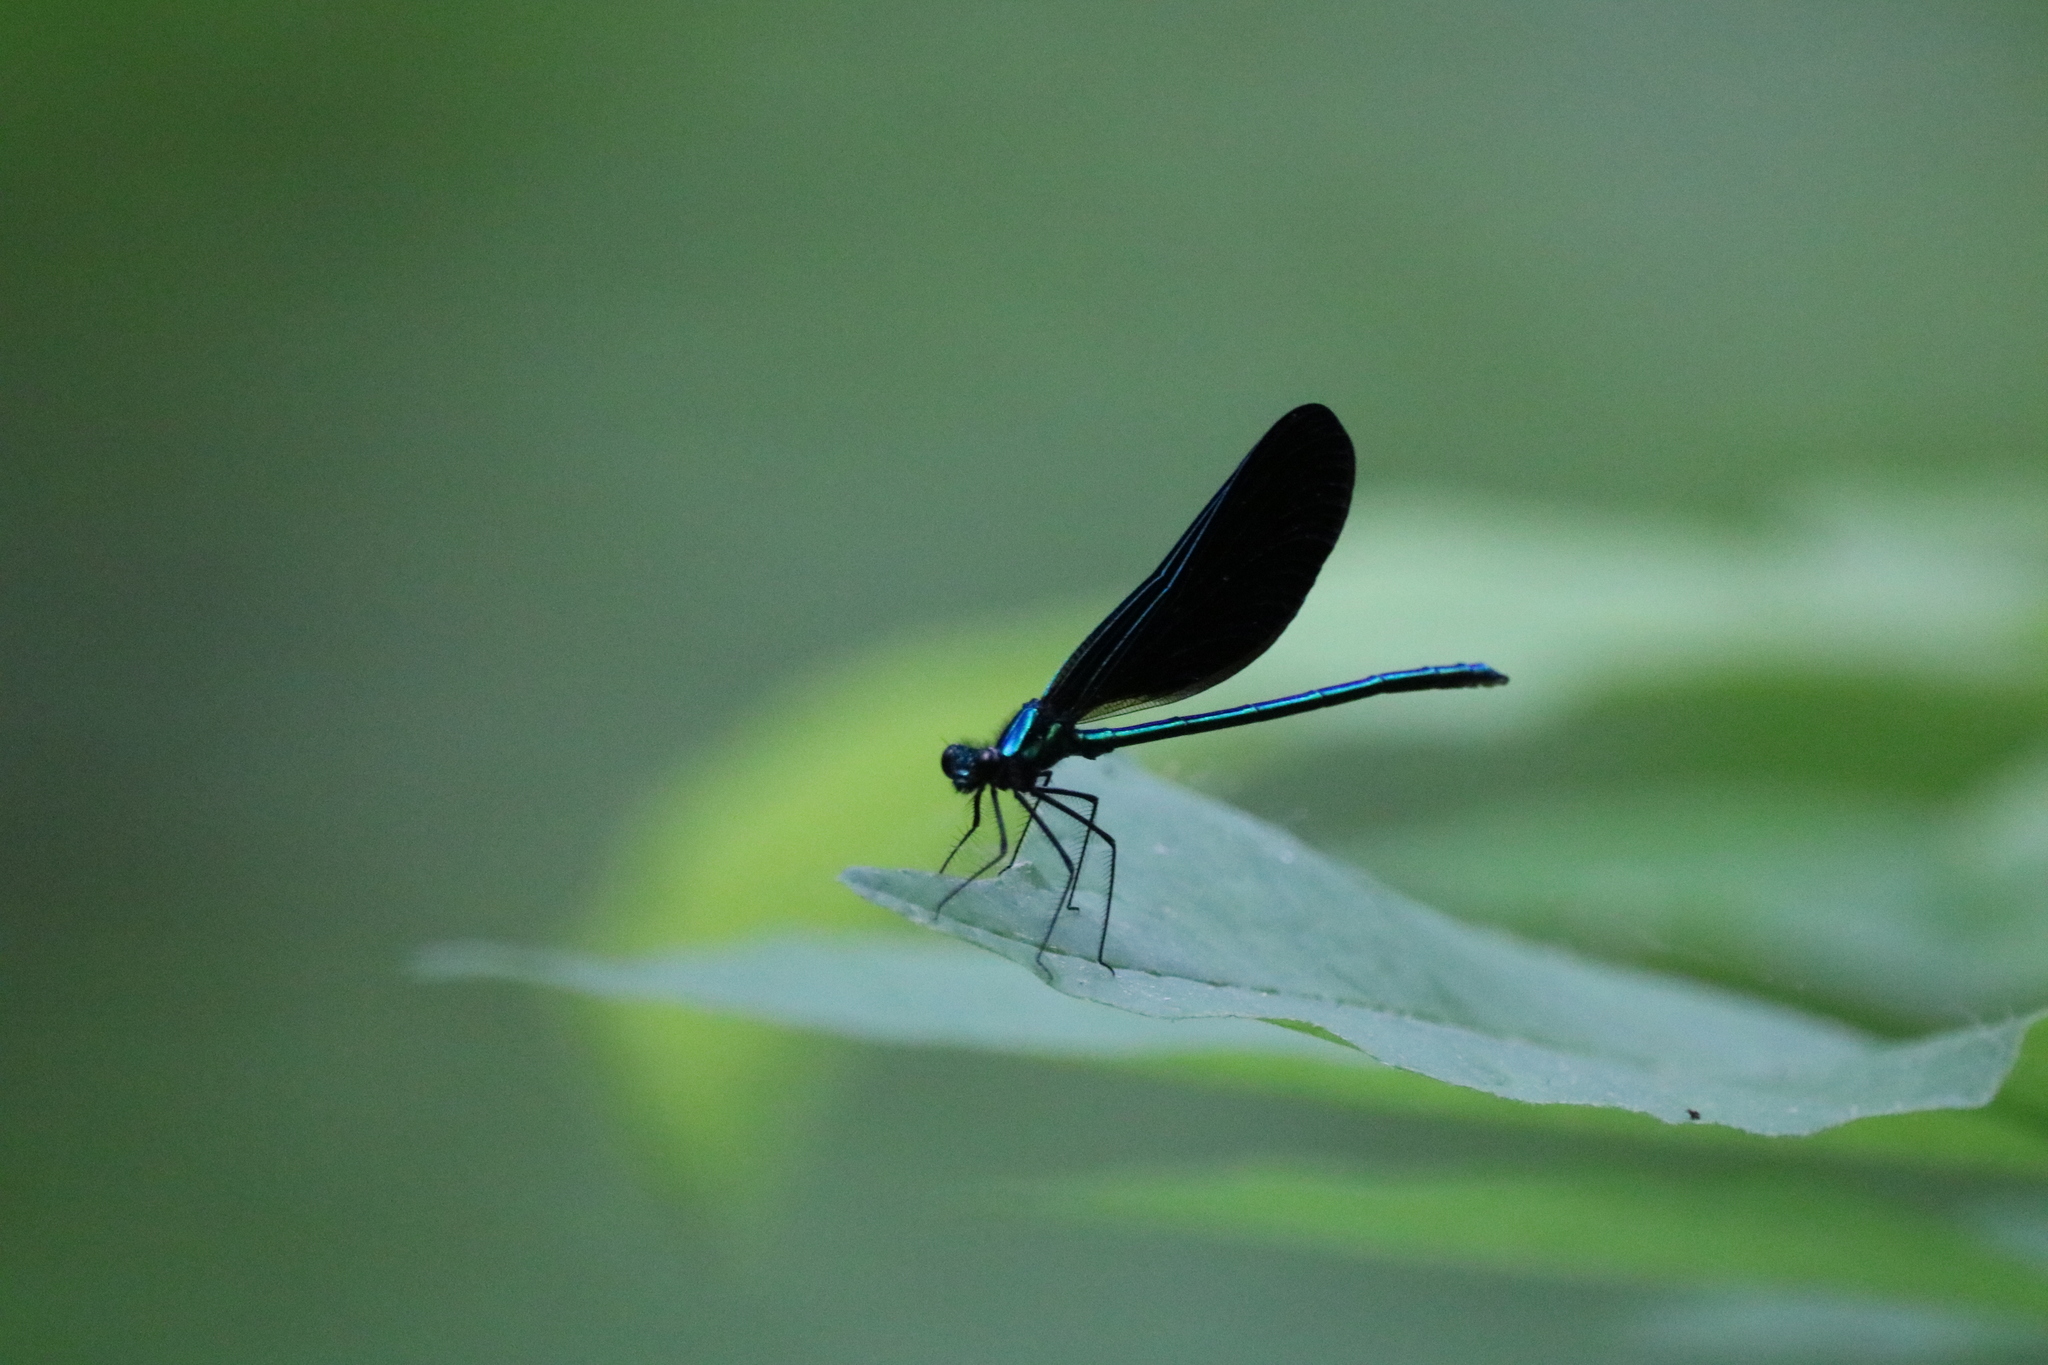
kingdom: Animalia
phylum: Arthropoda
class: Insecta
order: Odonata
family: Calopterygidae
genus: Calopteryx
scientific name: Calopteryx maculata
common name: Ebony jewelwing
